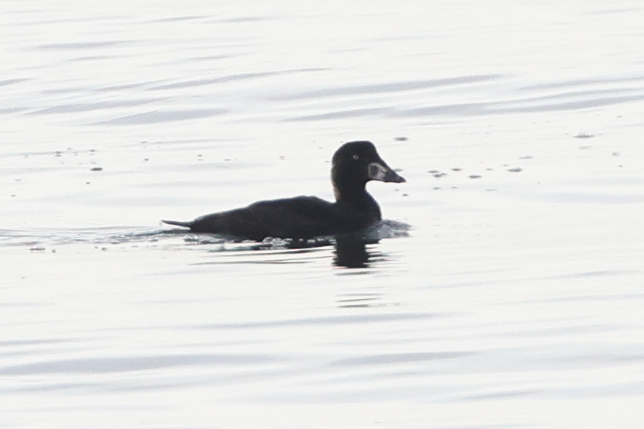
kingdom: Animalia
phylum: Chordata
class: Aves
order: Anseriformes
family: Anatidae
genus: Melanitta
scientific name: Melanitta perspicillata
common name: Surf scoter
